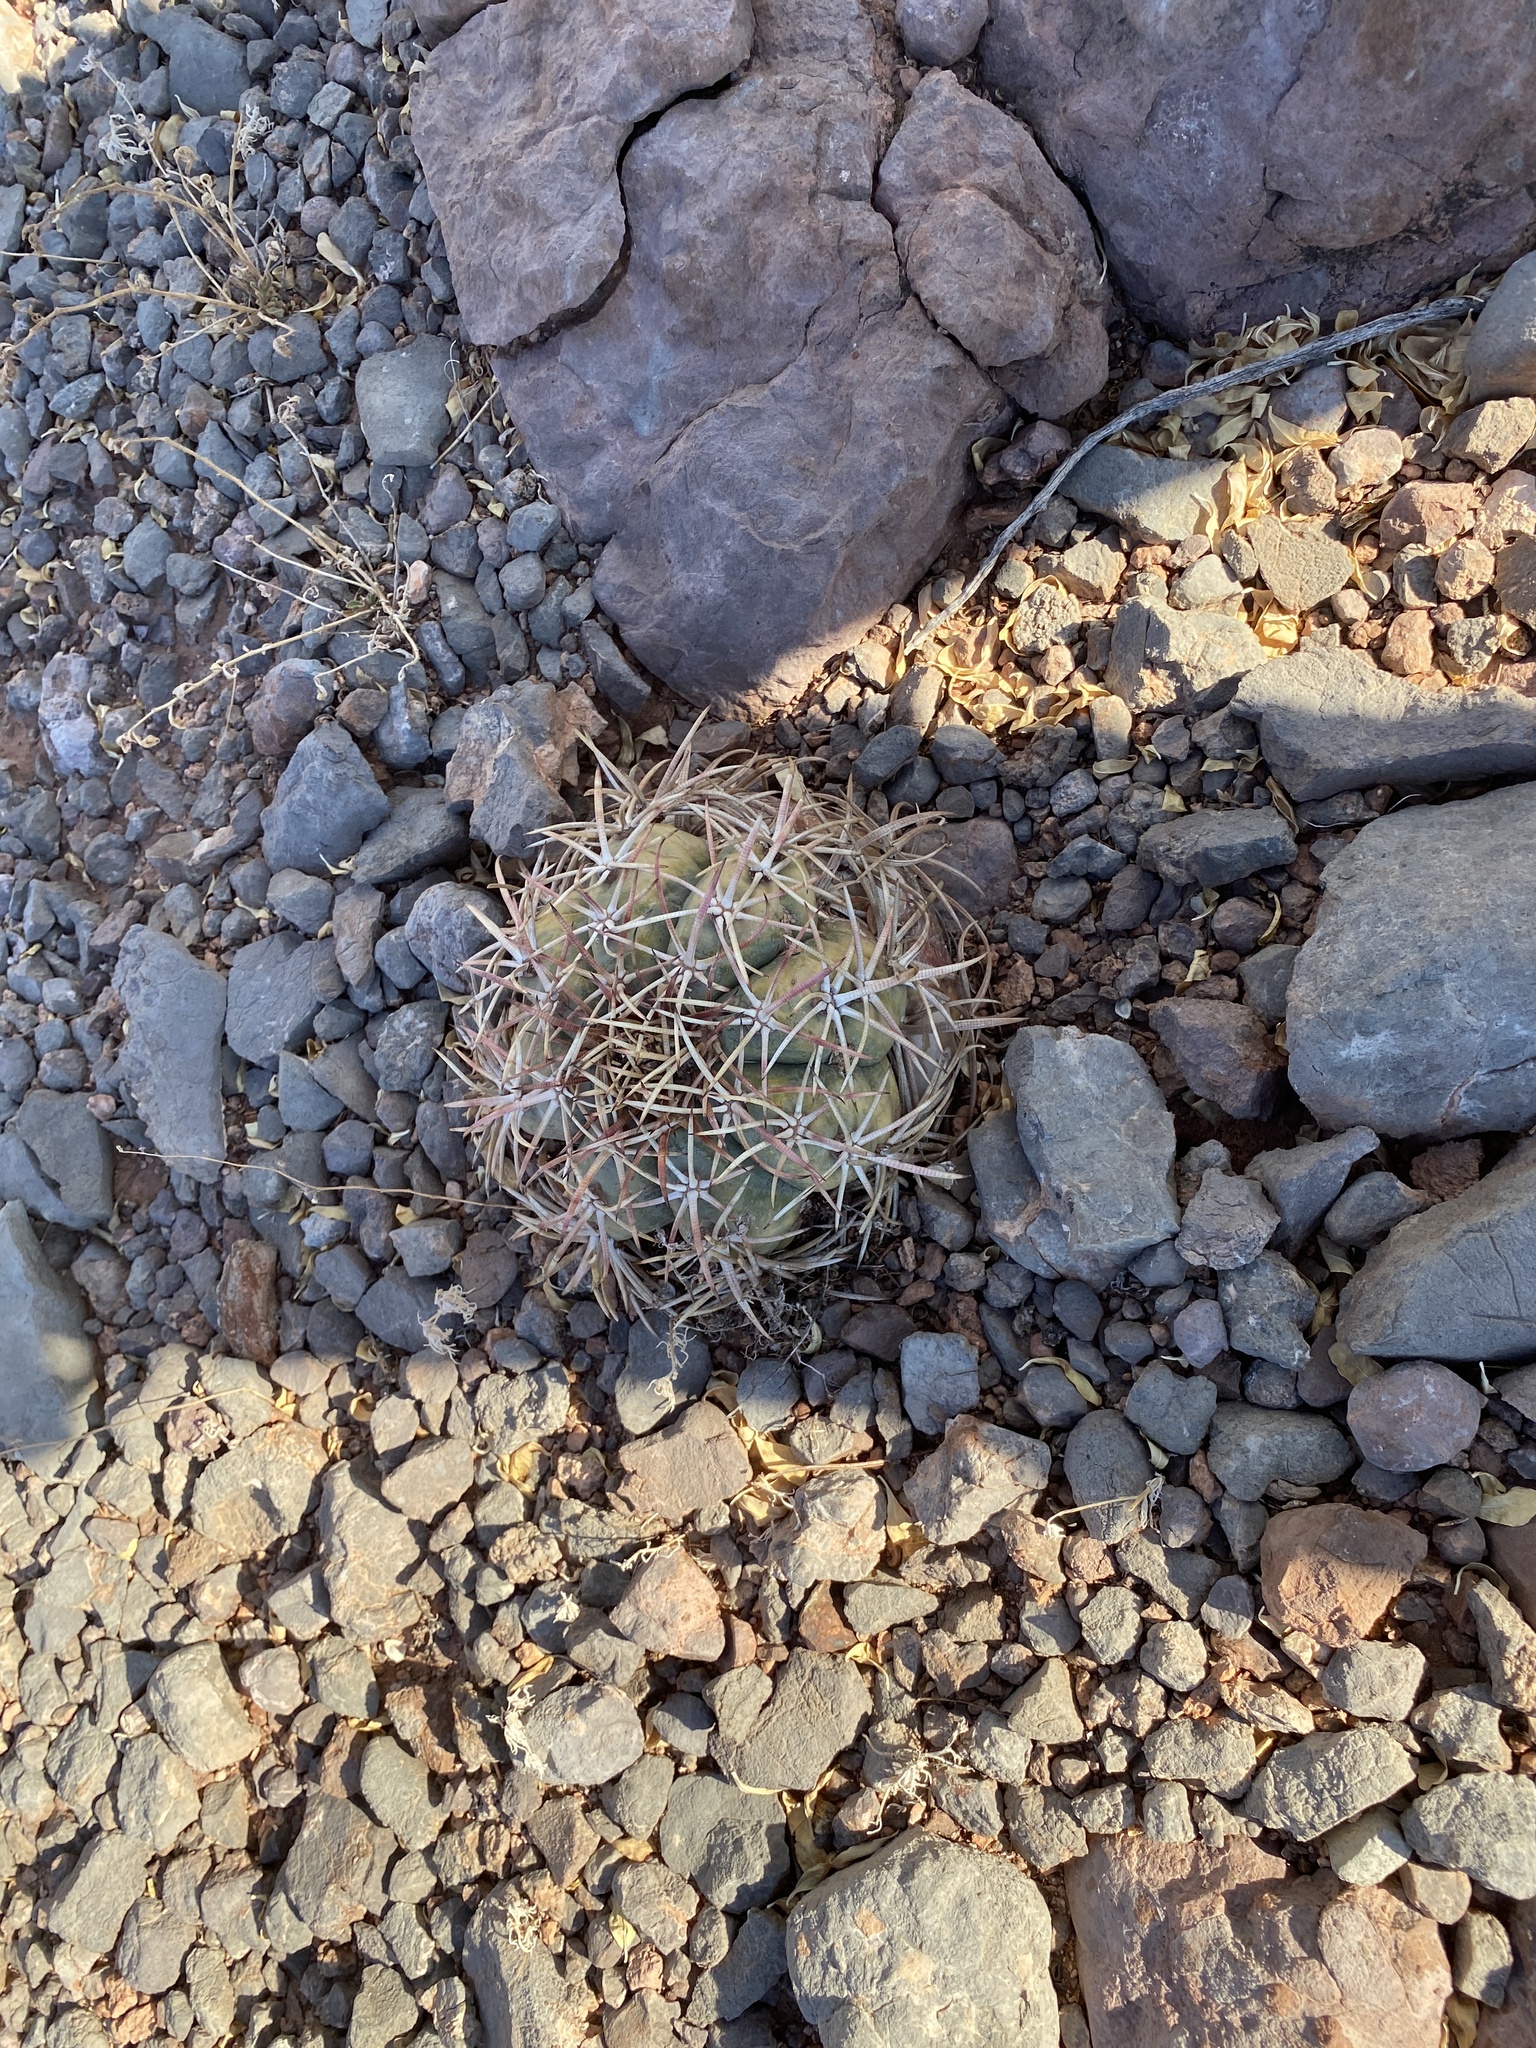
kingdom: Plantae
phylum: Tracheophyta
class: Magnoliopsida
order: Caryophyllales
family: Cactaceae
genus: Echinocactus
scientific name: Echinocactus horizonthalonius
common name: Devilshead
